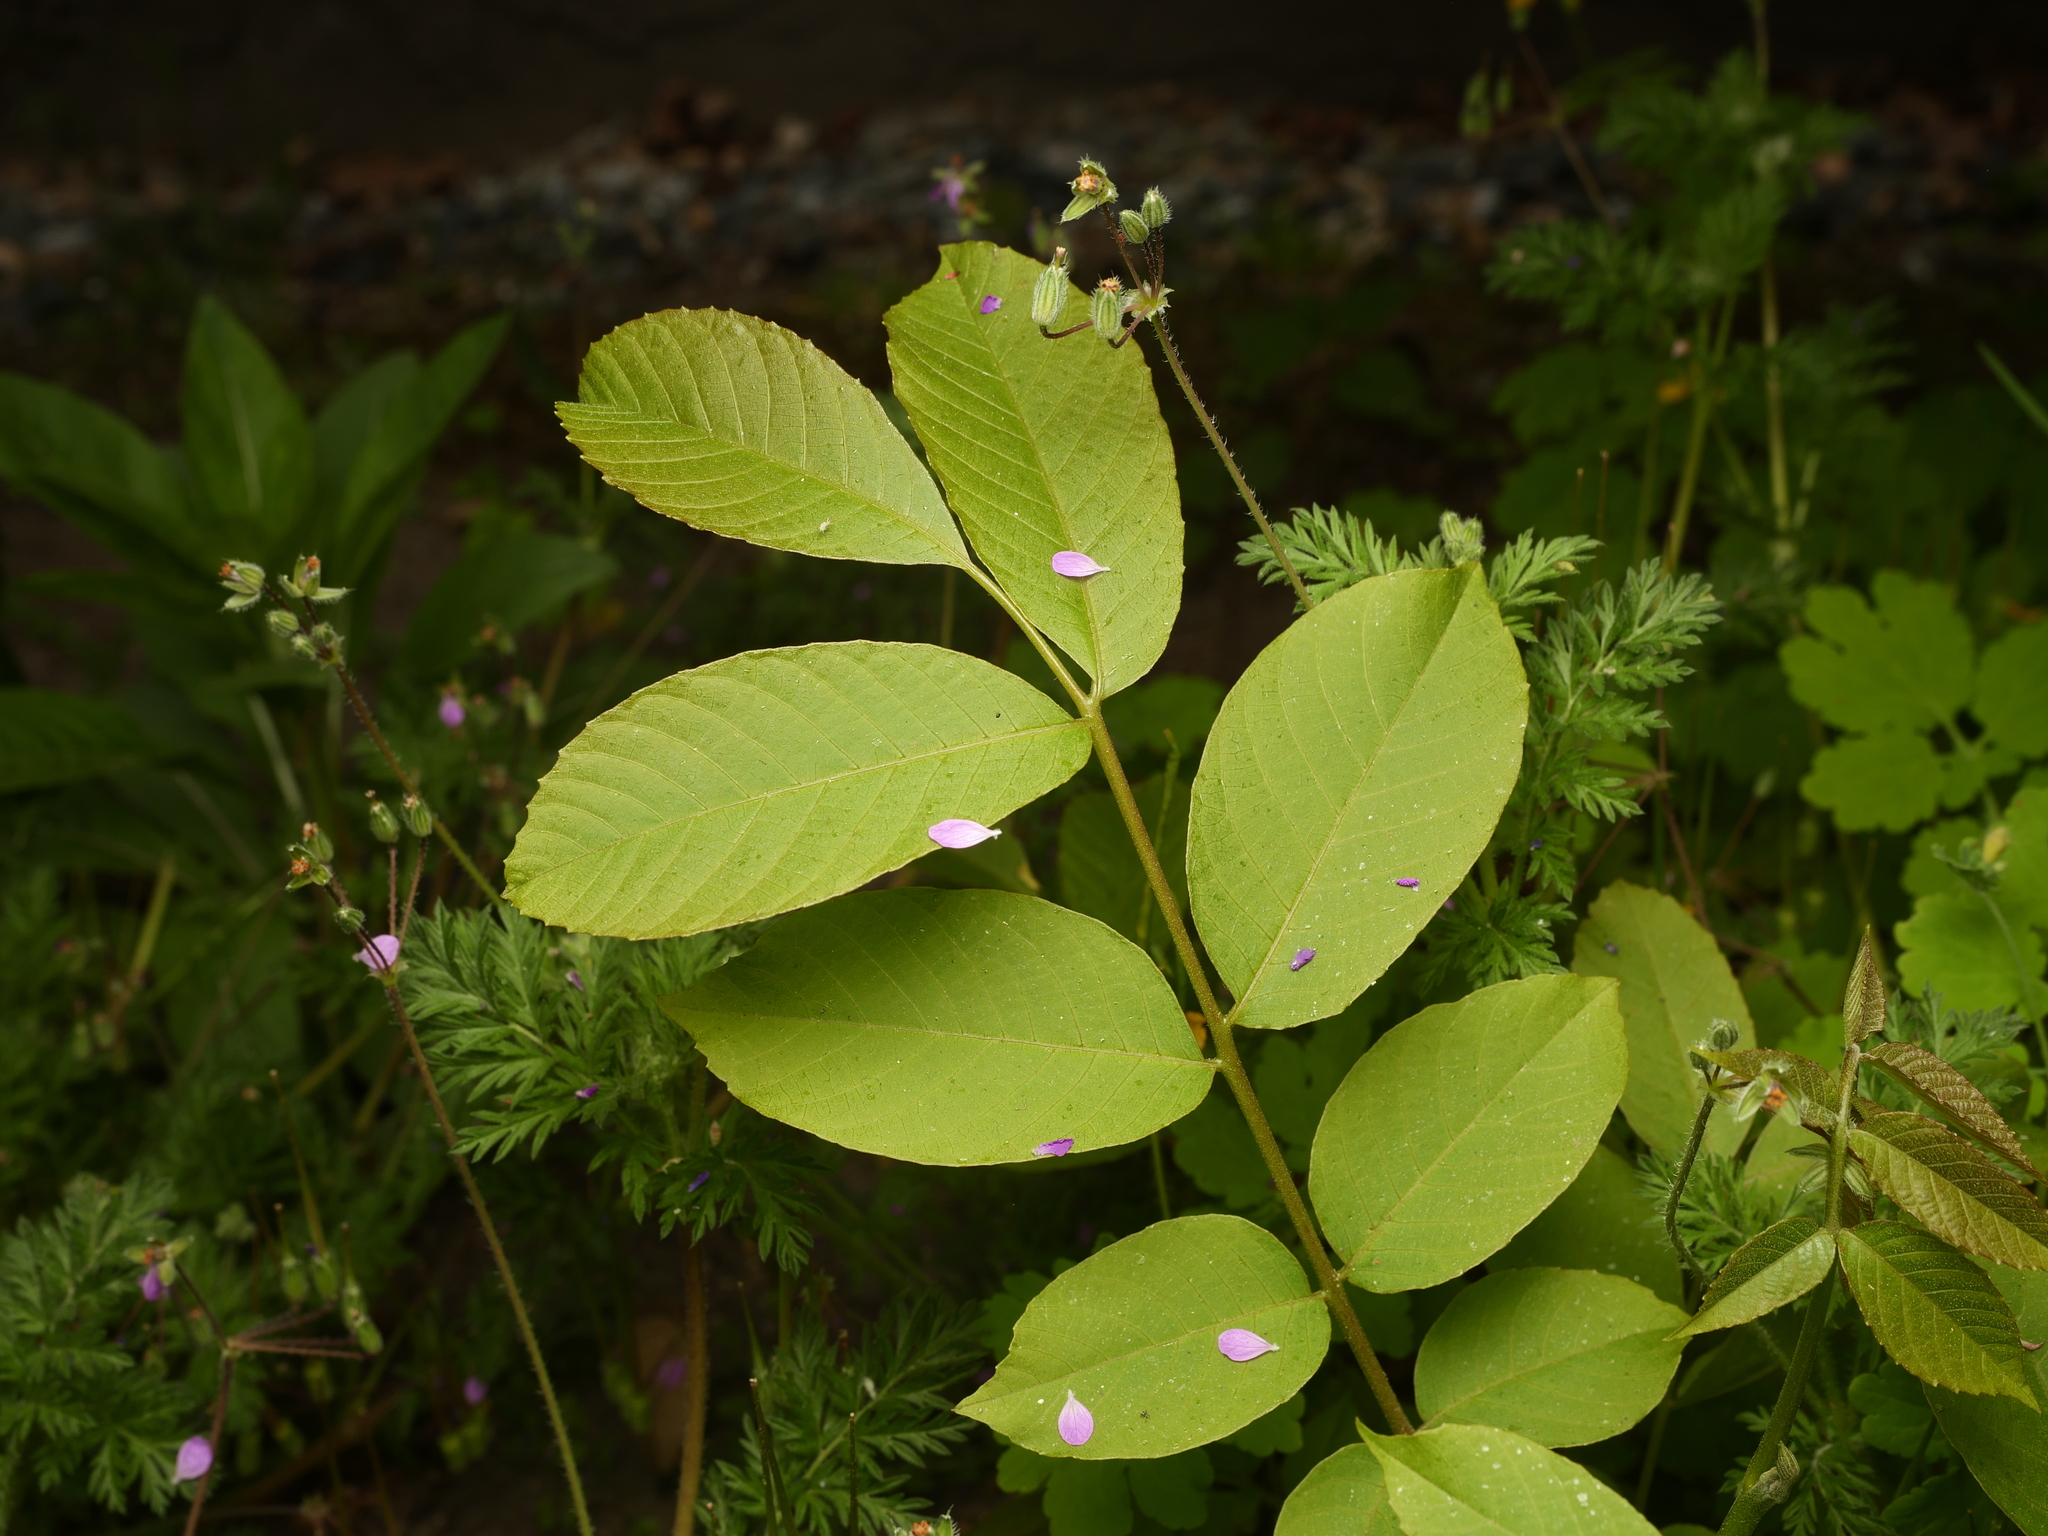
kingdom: Plantae
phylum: Tracheophyta
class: Magnoliopsida
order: Fagales
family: Juglandaceae
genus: Juglans
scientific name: Juglans regia
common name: Walnut
